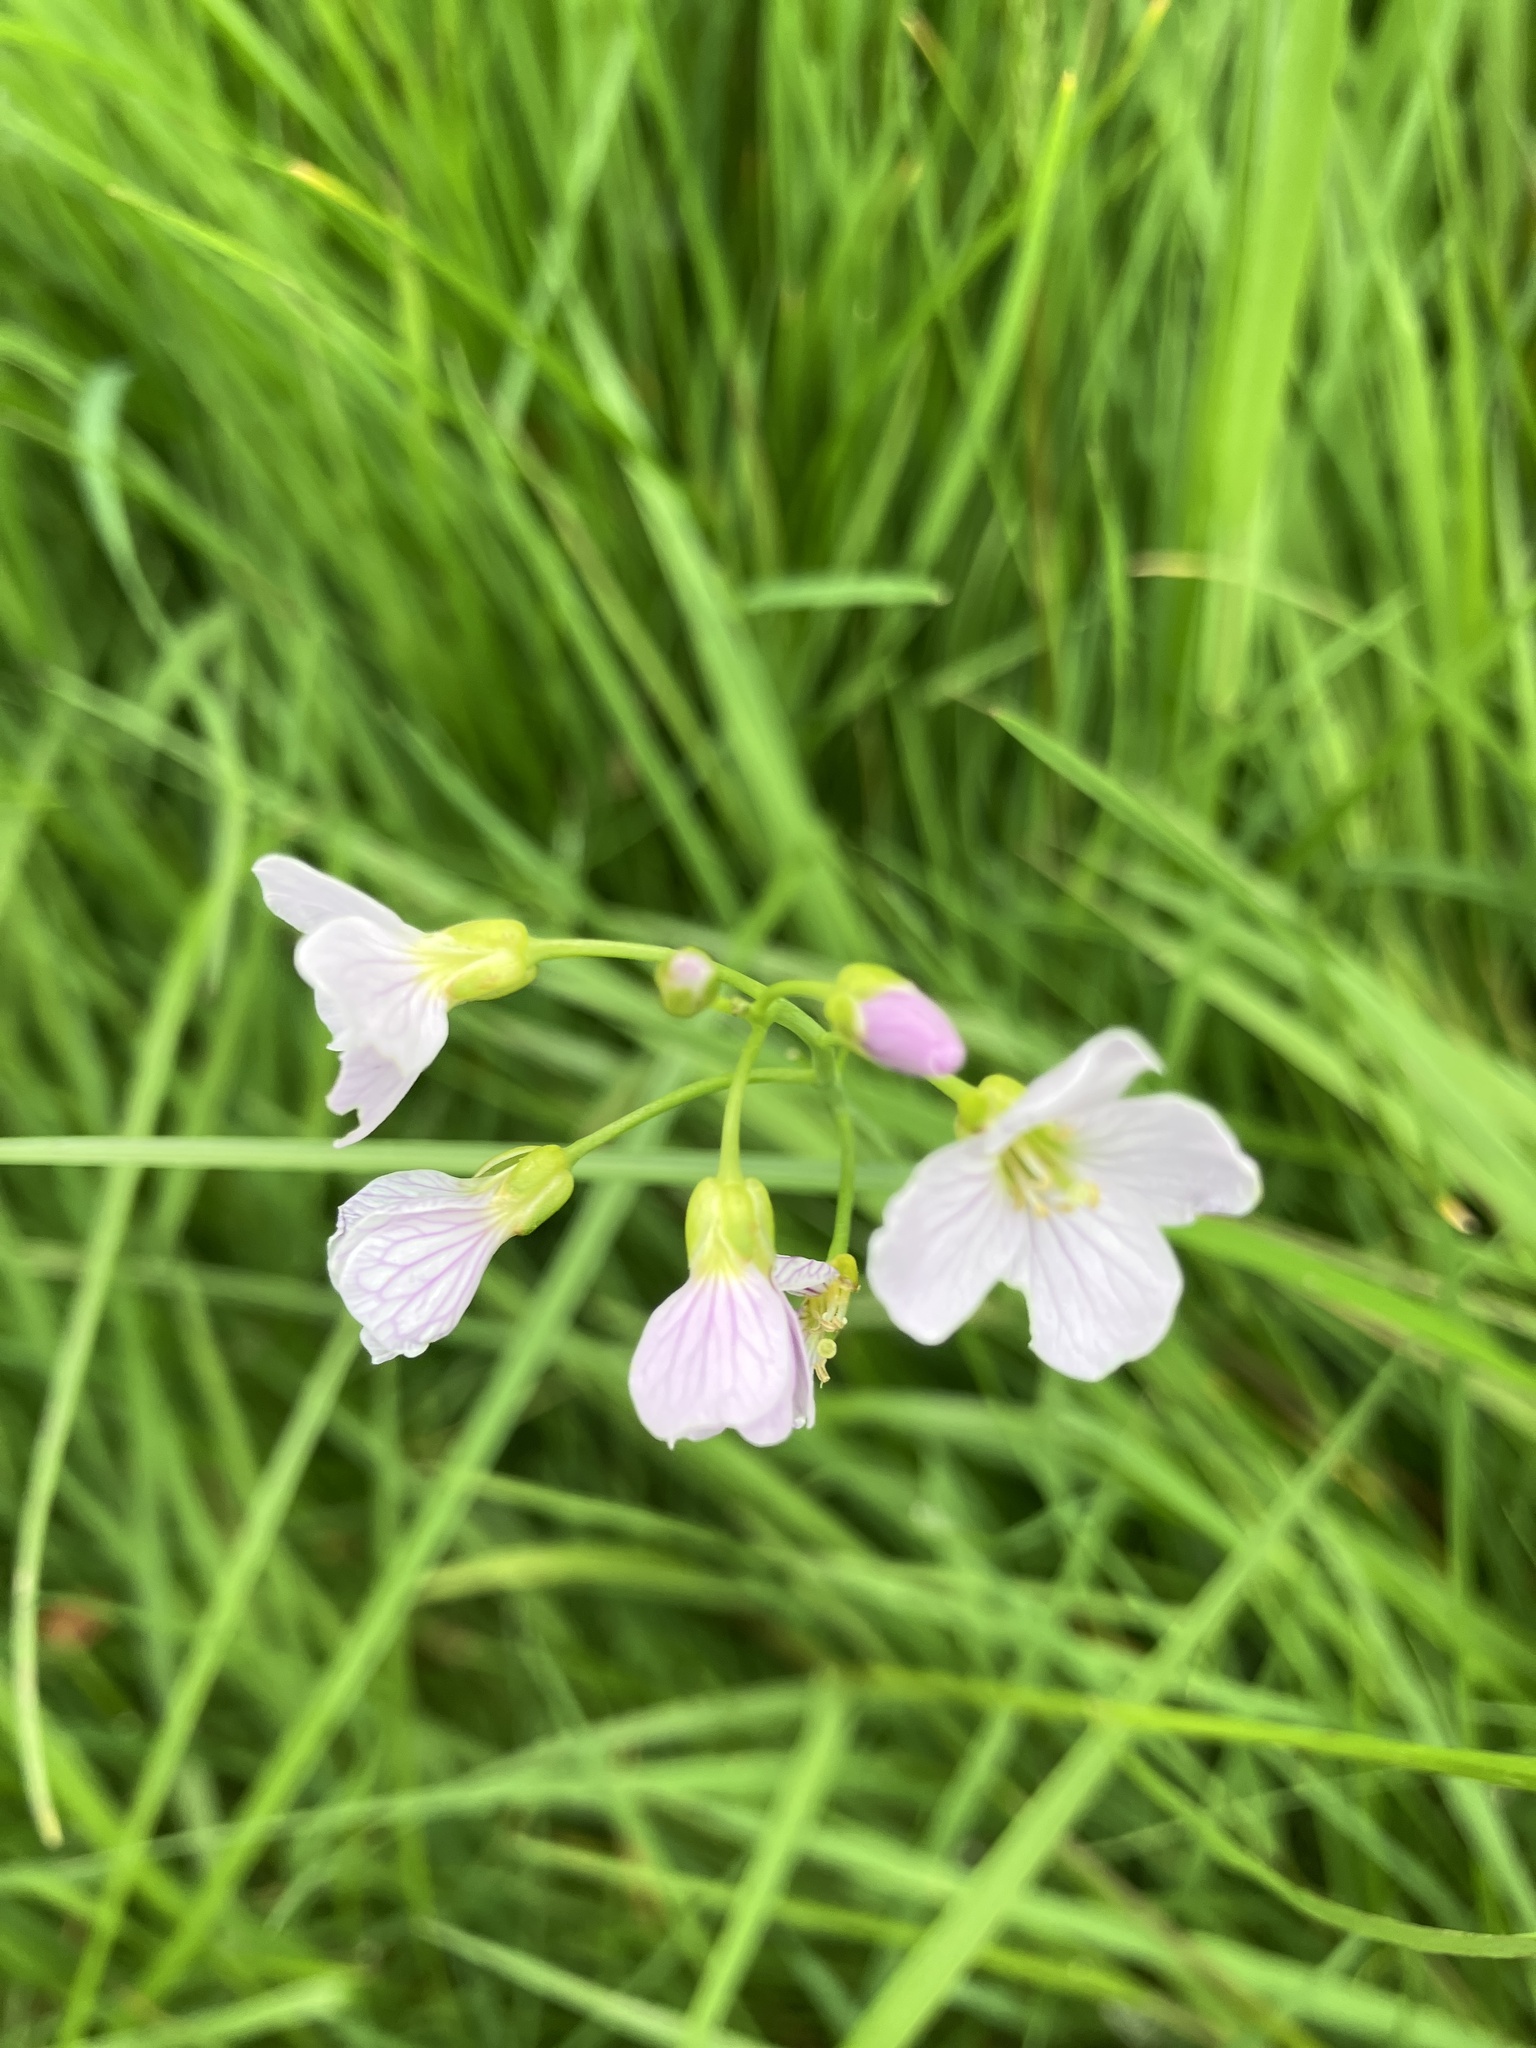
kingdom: Plantae
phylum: Tracheophyta
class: Magnoliopsida
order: Brassicales
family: Brassicaceae
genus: Cardamine
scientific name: Cardamine pratensis
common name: Cuckoo flower
